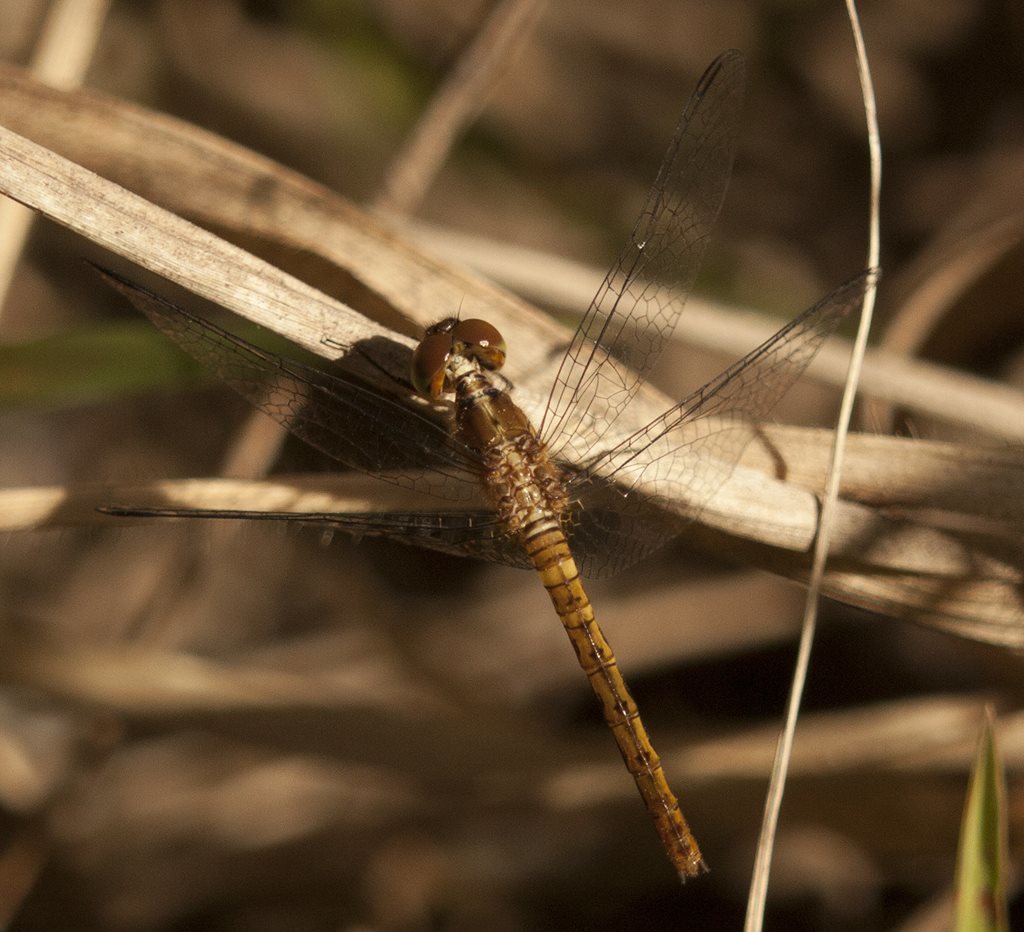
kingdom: Animalia
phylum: Arthropoda
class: Insecta
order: Odonata
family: Libellulidae
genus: Nannodiplax
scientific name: Nannodiplax rubra
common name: Pygmy percher
